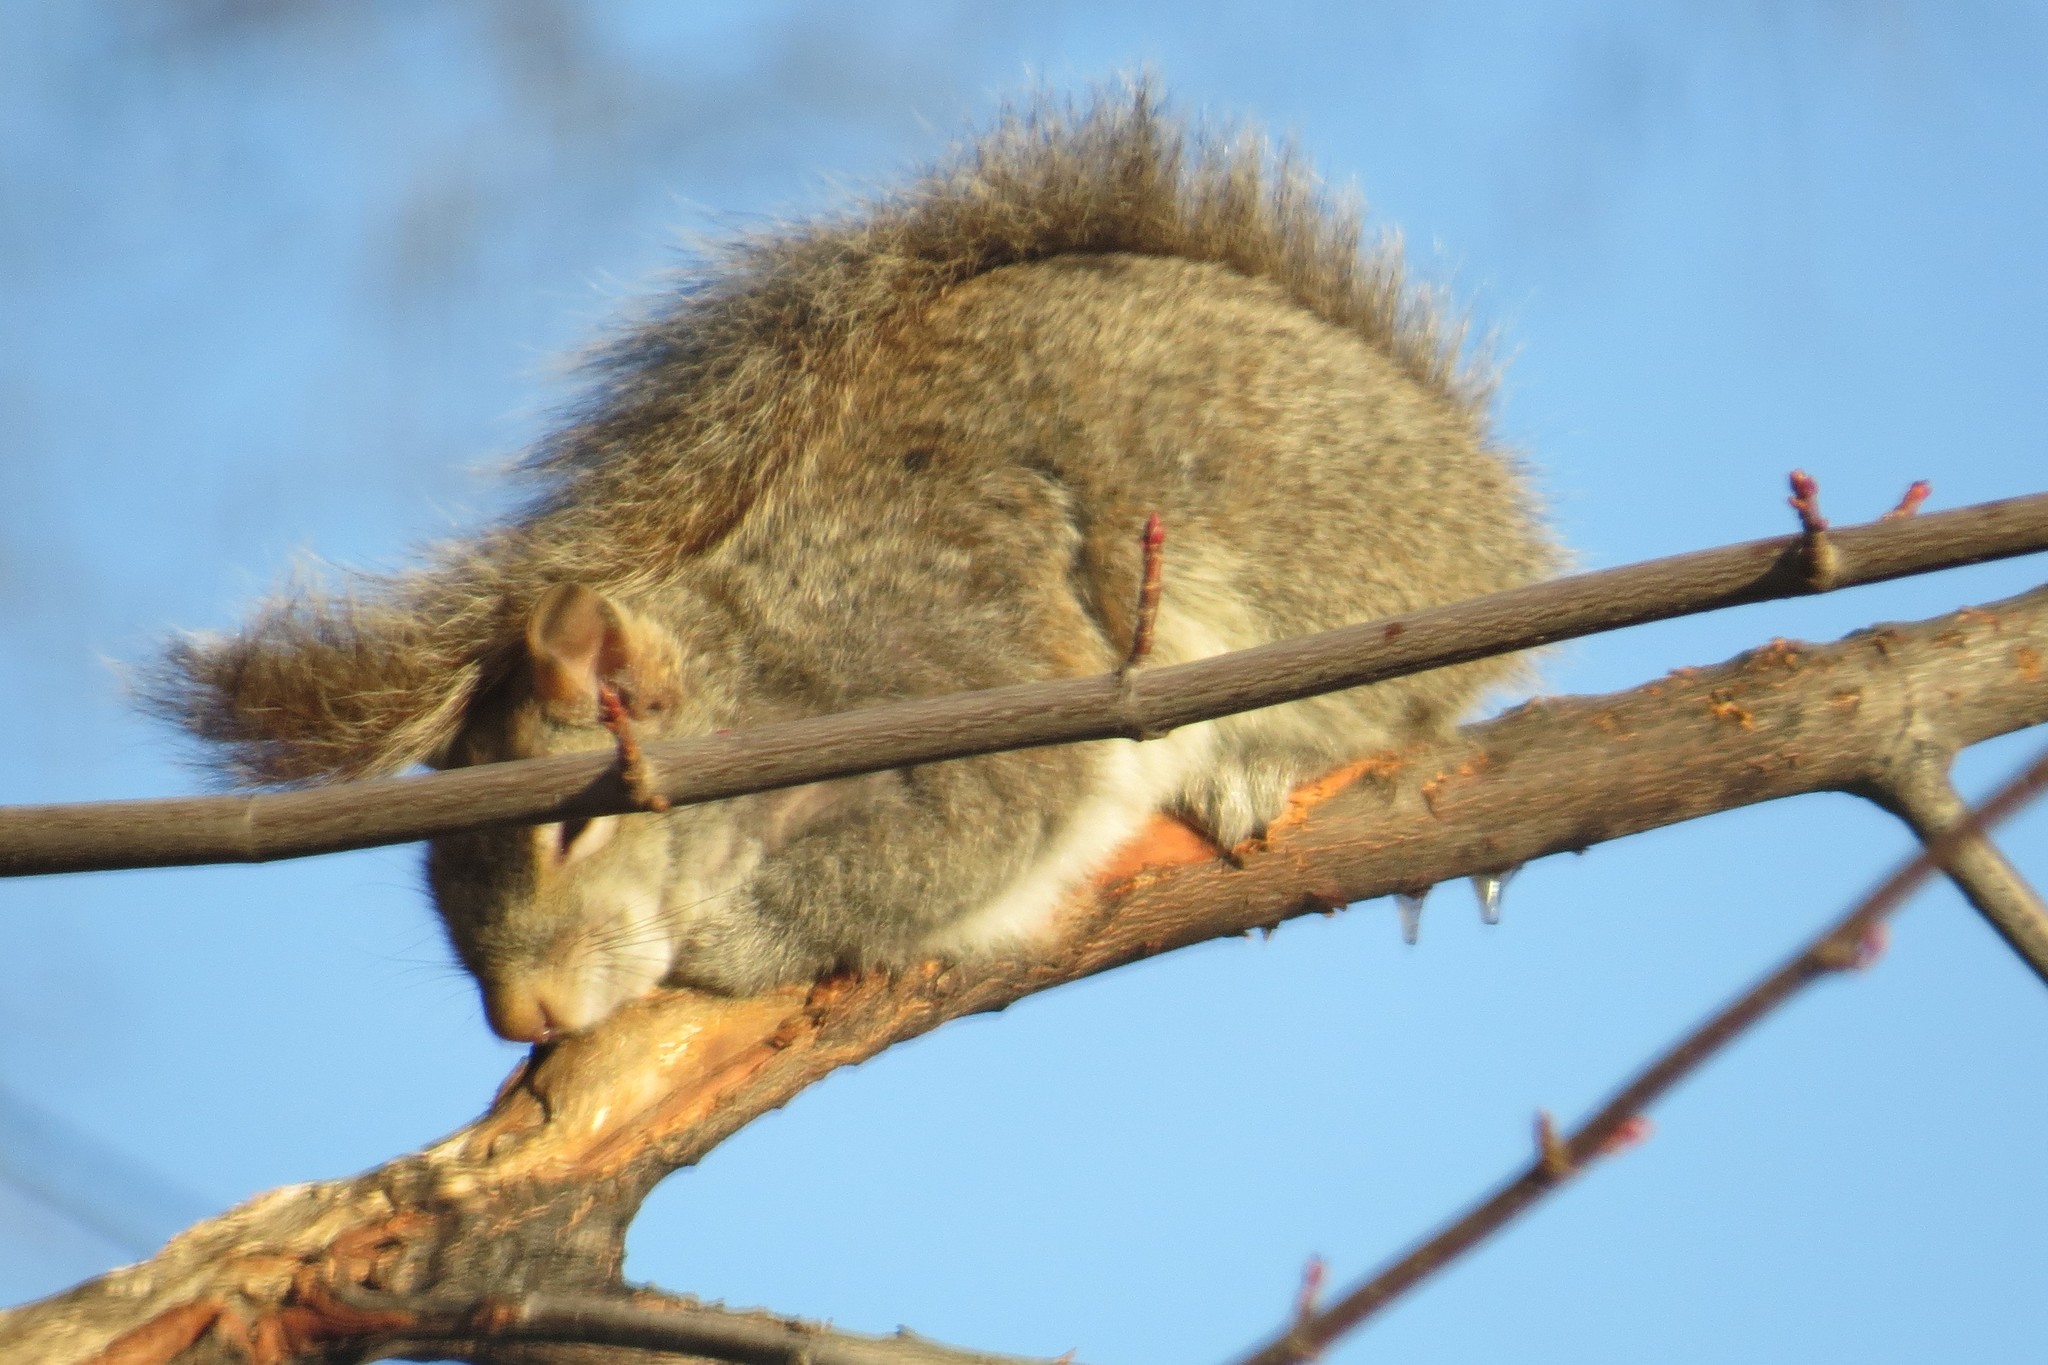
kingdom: Animalia
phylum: Chordata
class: Mammalia
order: Rodentia
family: Sciuridae
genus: Sciurus
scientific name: Sciurus carolinensis
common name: Eastern gray squirrel
